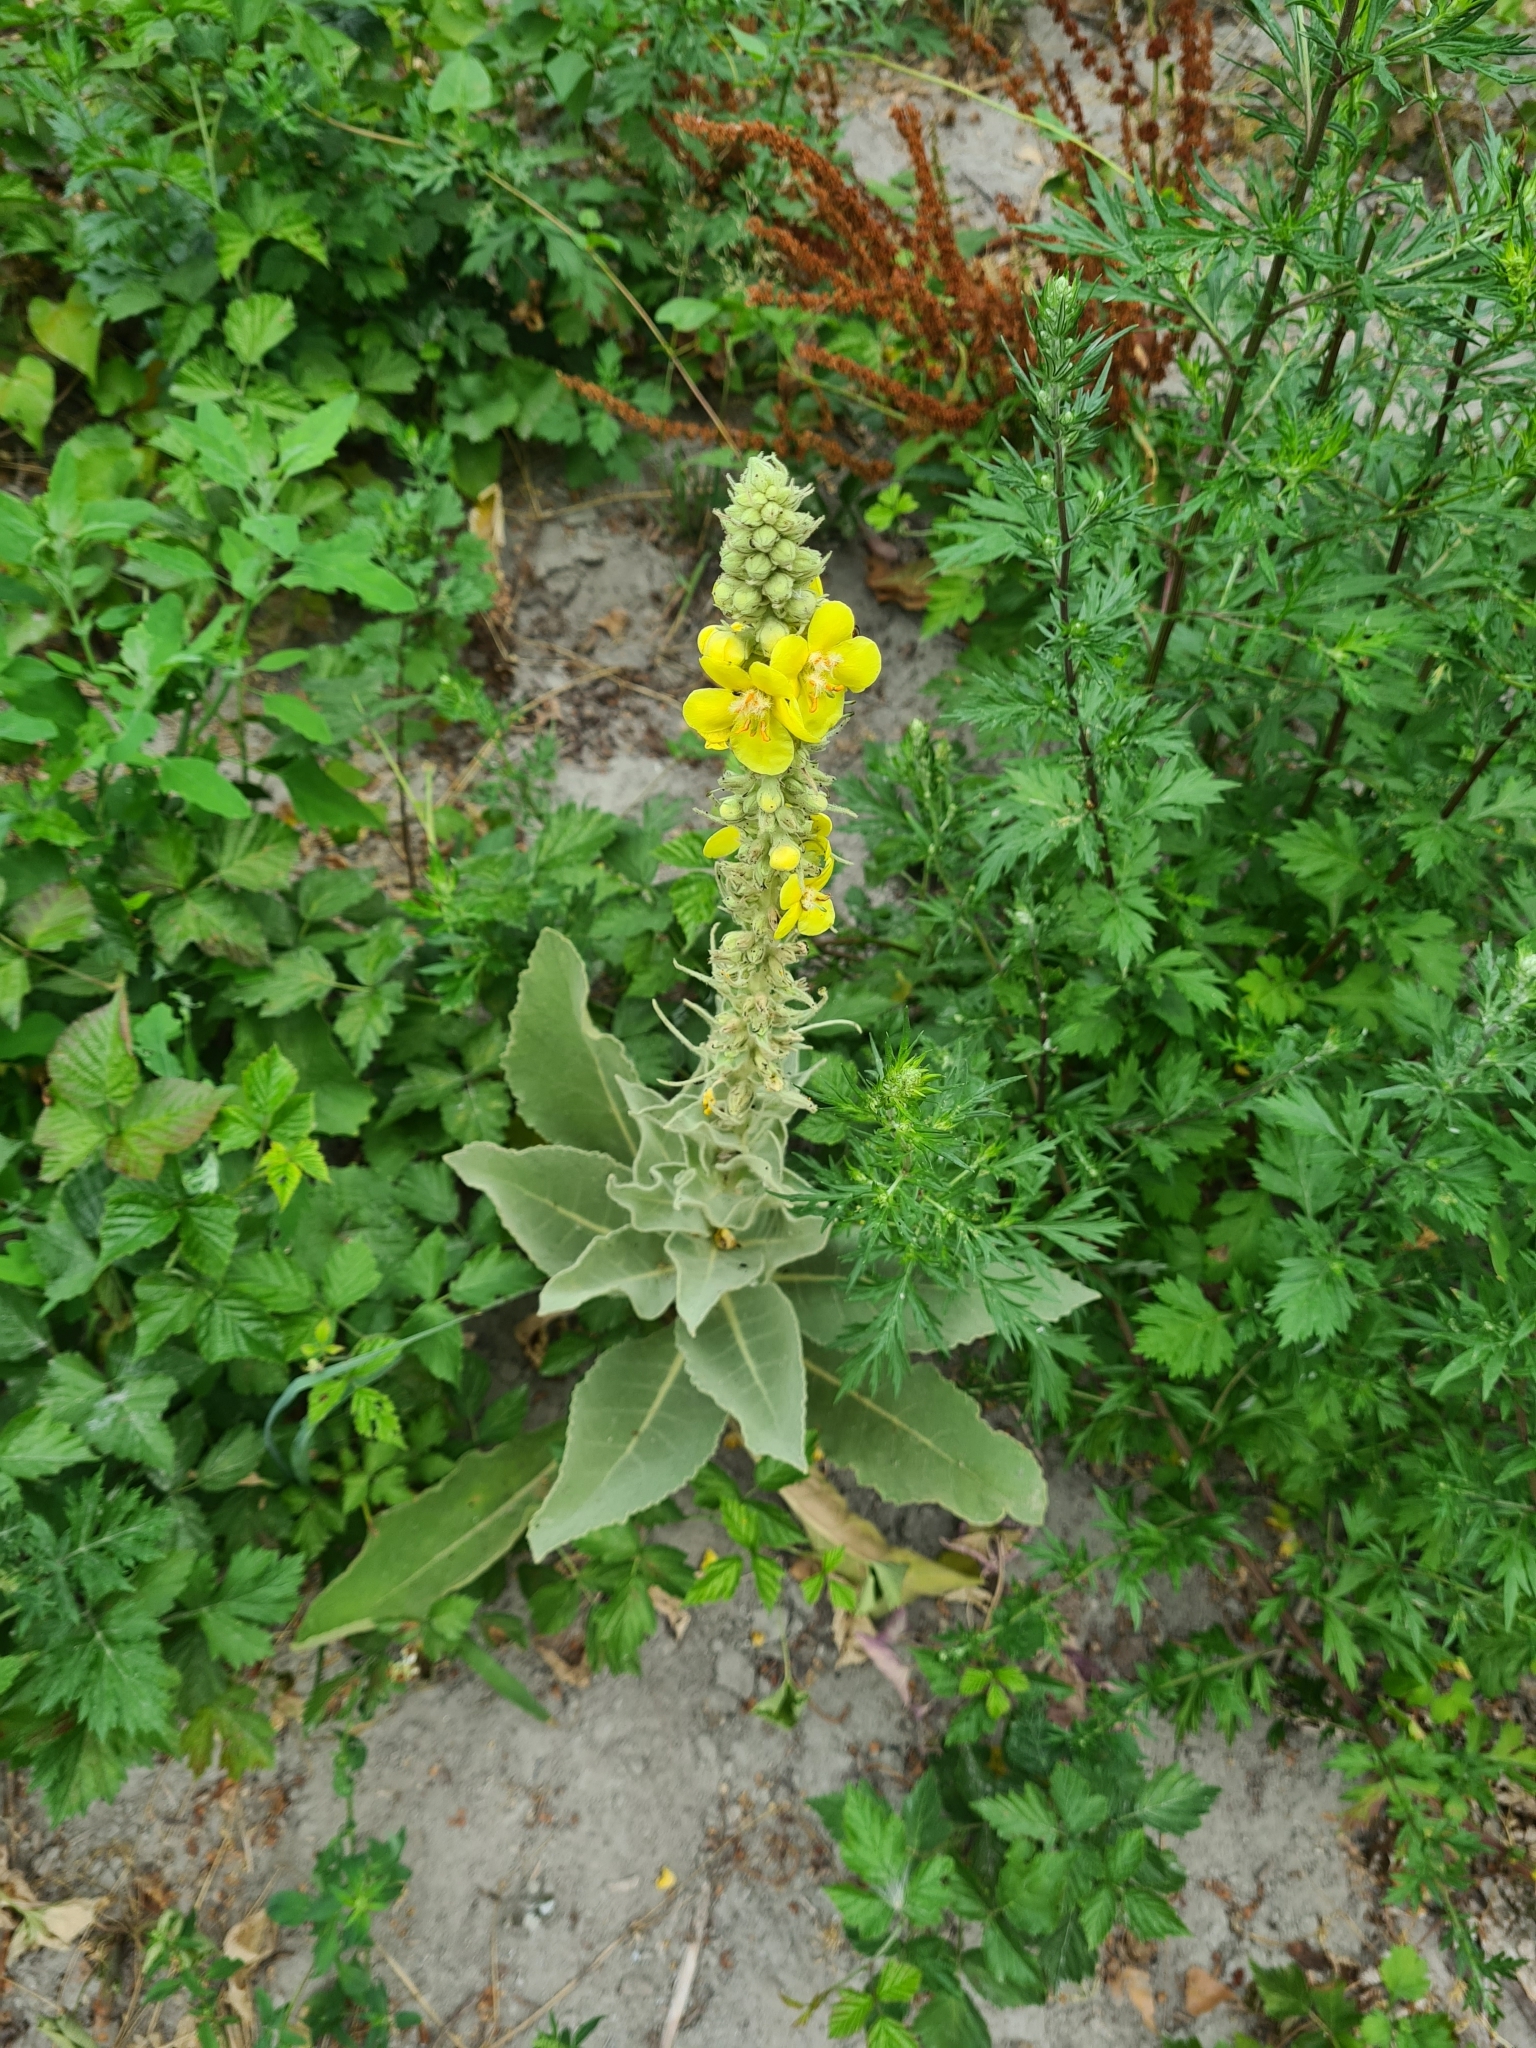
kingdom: Plantae
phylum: Tracheophyta
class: Magnoliopsida
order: Lamiales
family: Scrophulariaceae
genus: Verbascum
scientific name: Verbascum thapsus
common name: Common mullein
